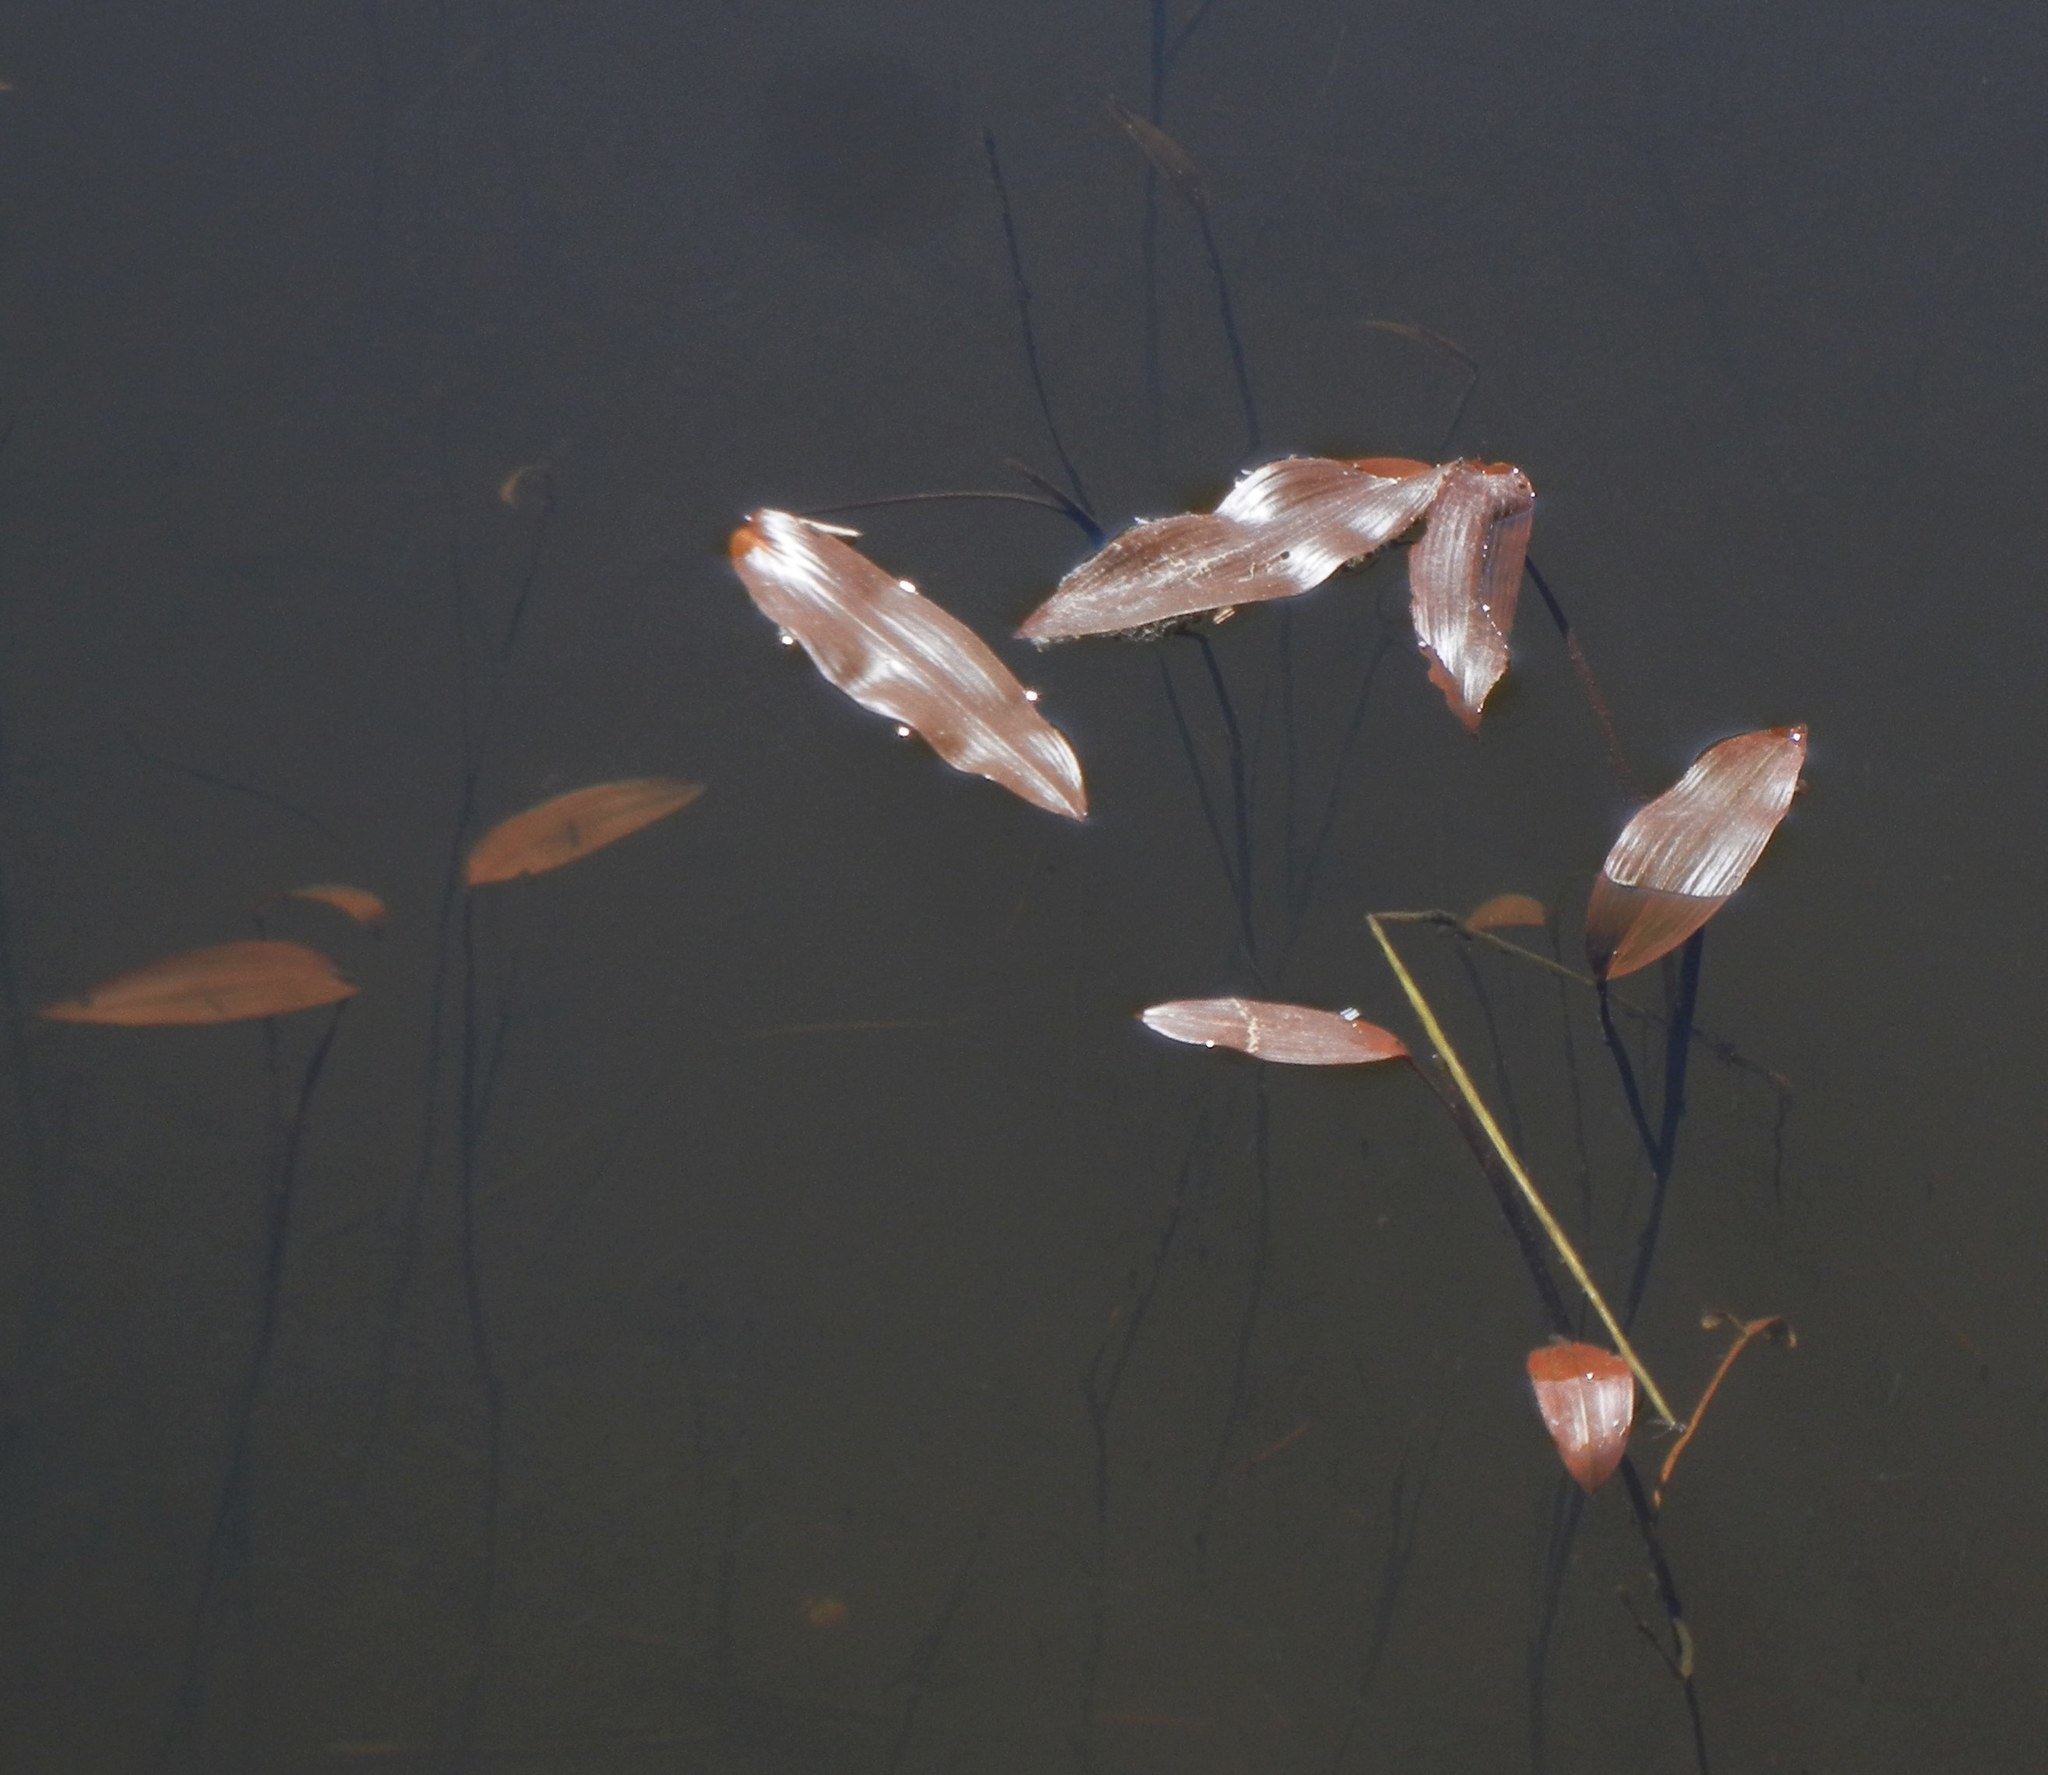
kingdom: Plantae
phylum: Tracheophyta
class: Liliopsida
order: Alismatales
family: Potamogetonaceae
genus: Potamogeton
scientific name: Potamogeton natans
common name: Broad-leaved pondweed
